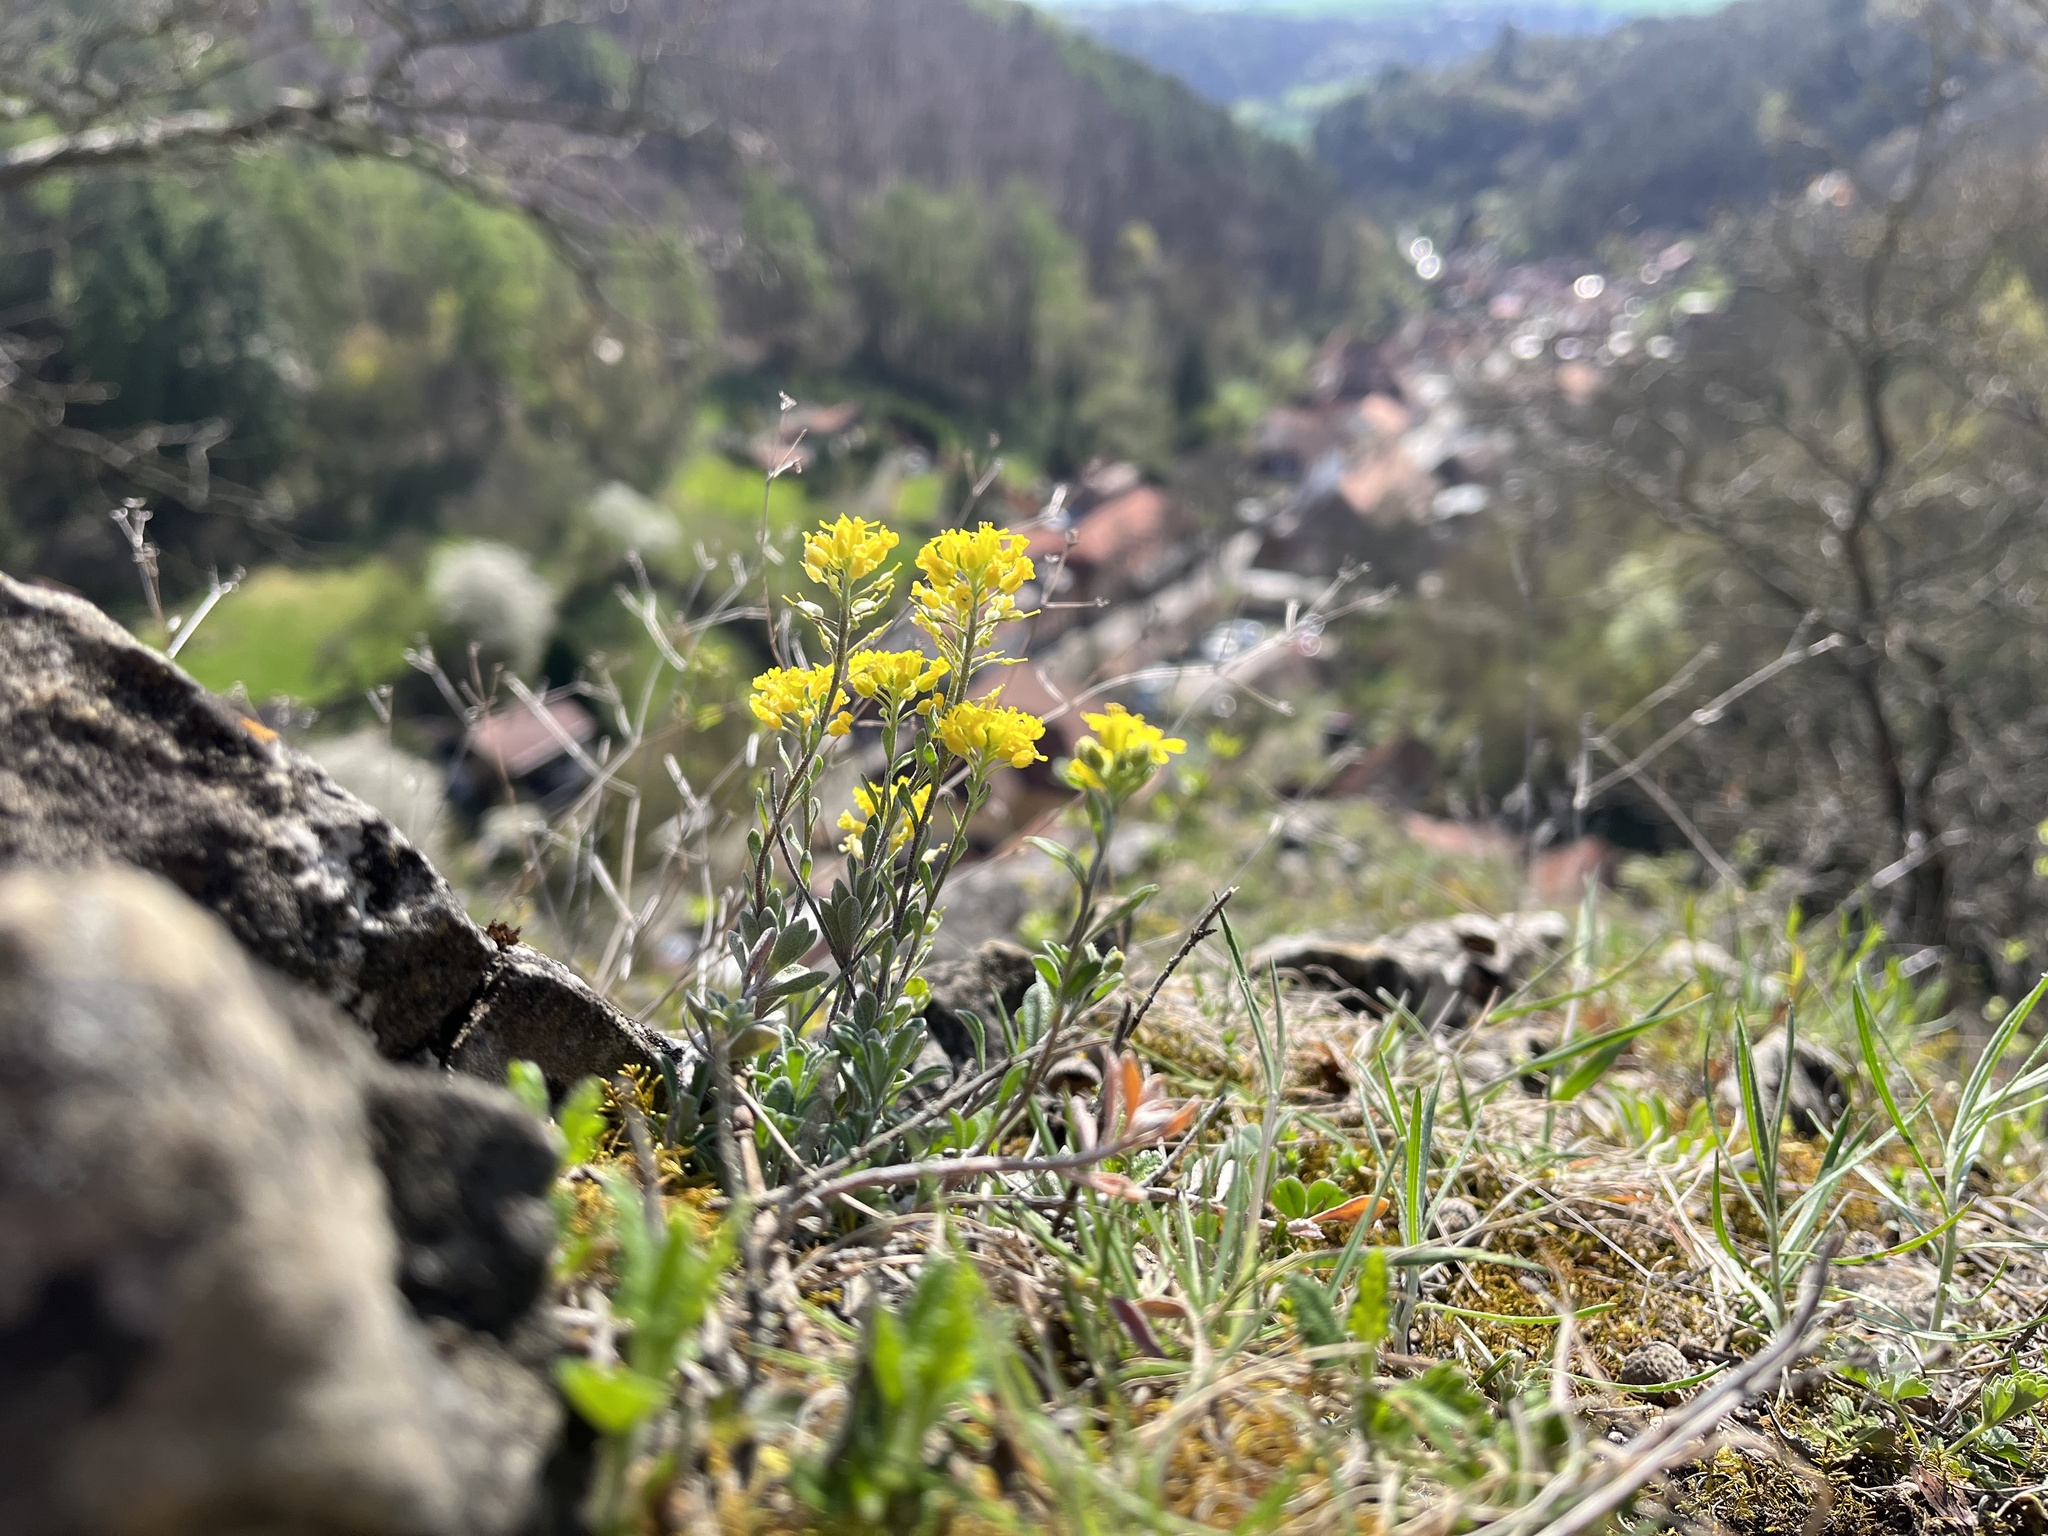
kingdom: Plantae
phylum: Tracheophyta
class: Magnoliopsida
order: Brassicales
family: Brassicaceae
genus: Alyssum
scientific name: Alyssum gmelinii
